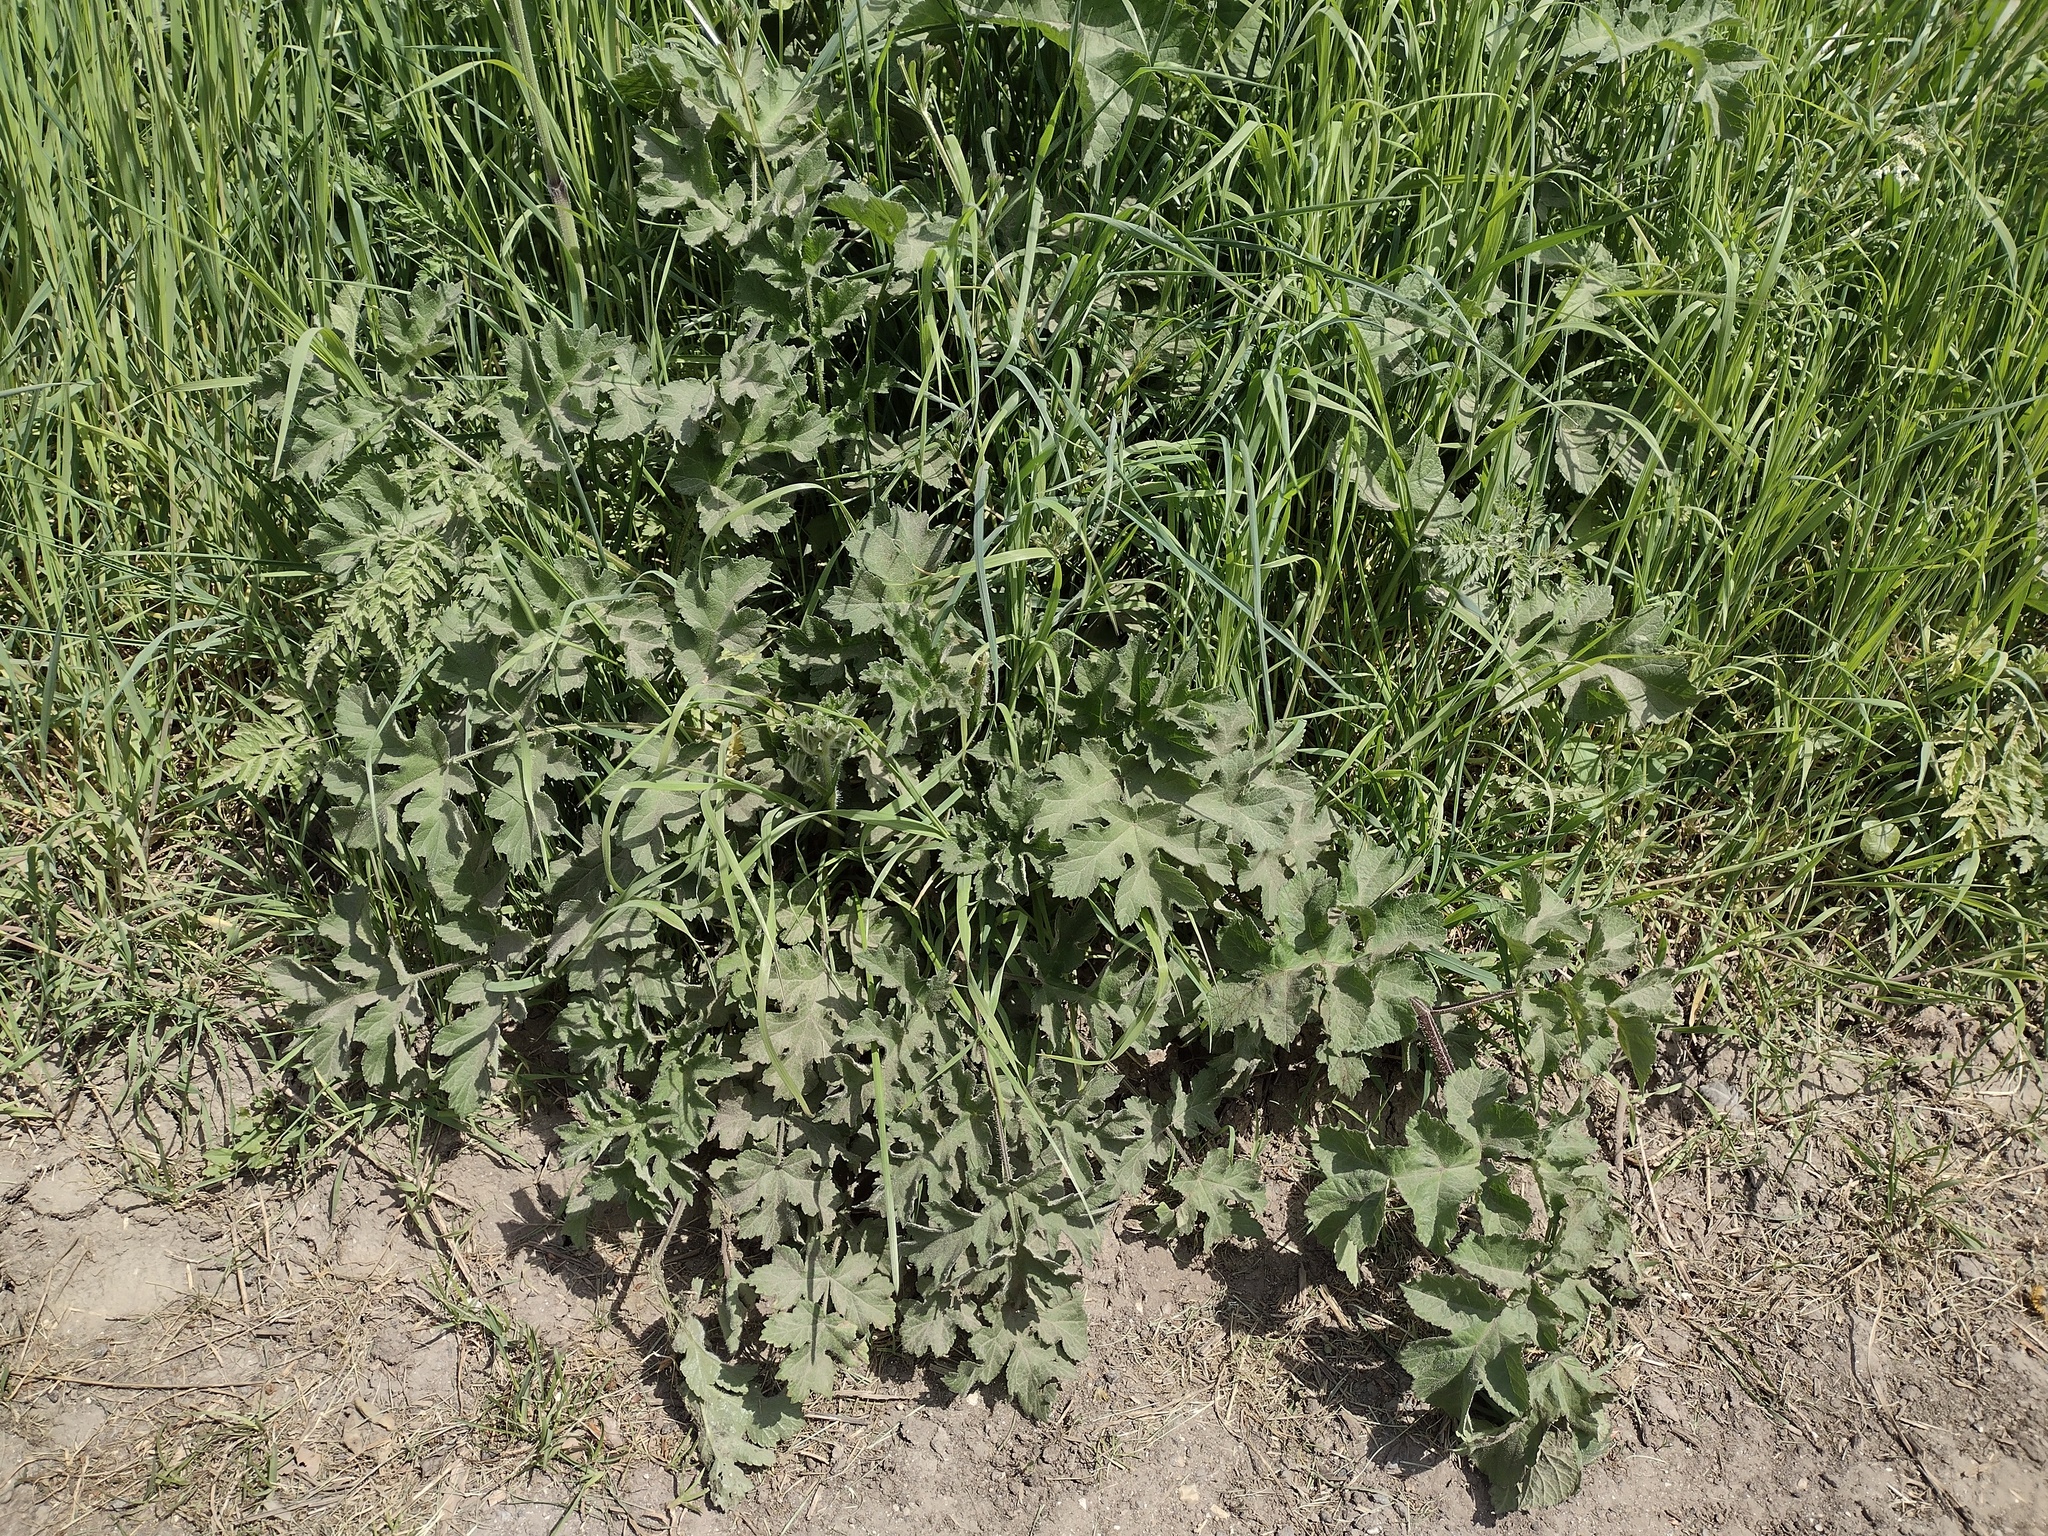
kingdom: Plantae
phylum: Tracheophyta
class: Magnoliopsida
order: Apiales
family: Apiaceae
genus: Heracleum
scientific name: Heracleum sphondylium
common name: Hogweed
